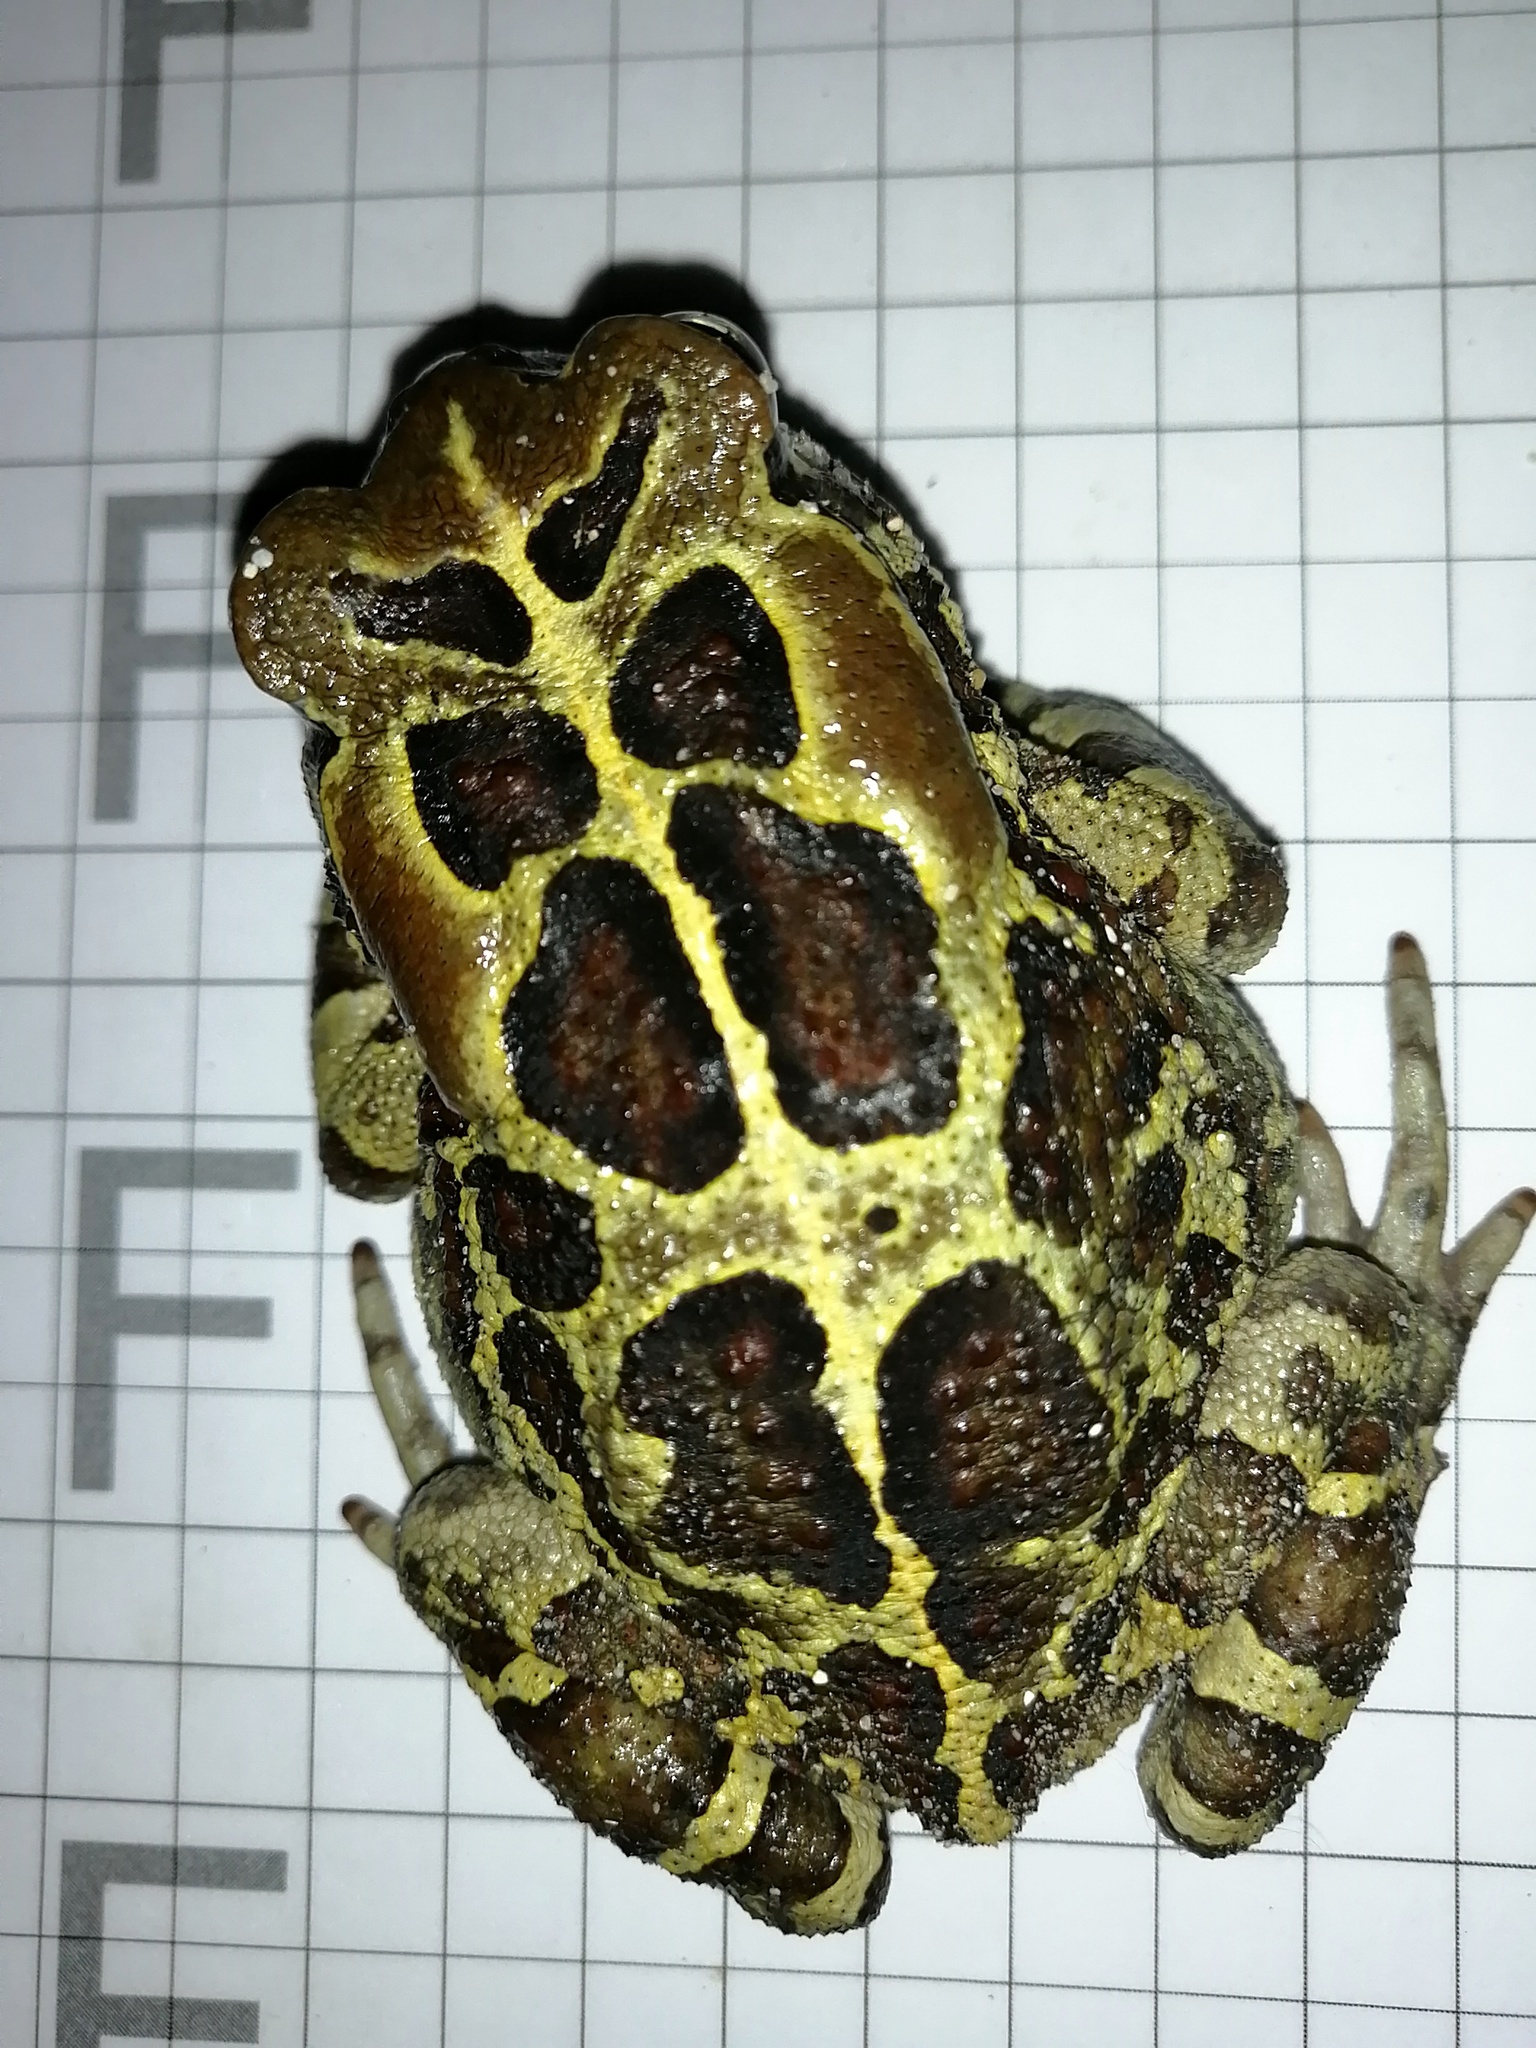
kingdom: Animalia
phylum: Chordata
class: Amphibia
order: Anura
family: Bufonidae
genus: Sclerophrys
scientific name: Sclerophrys pantherina
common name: Panther toad
